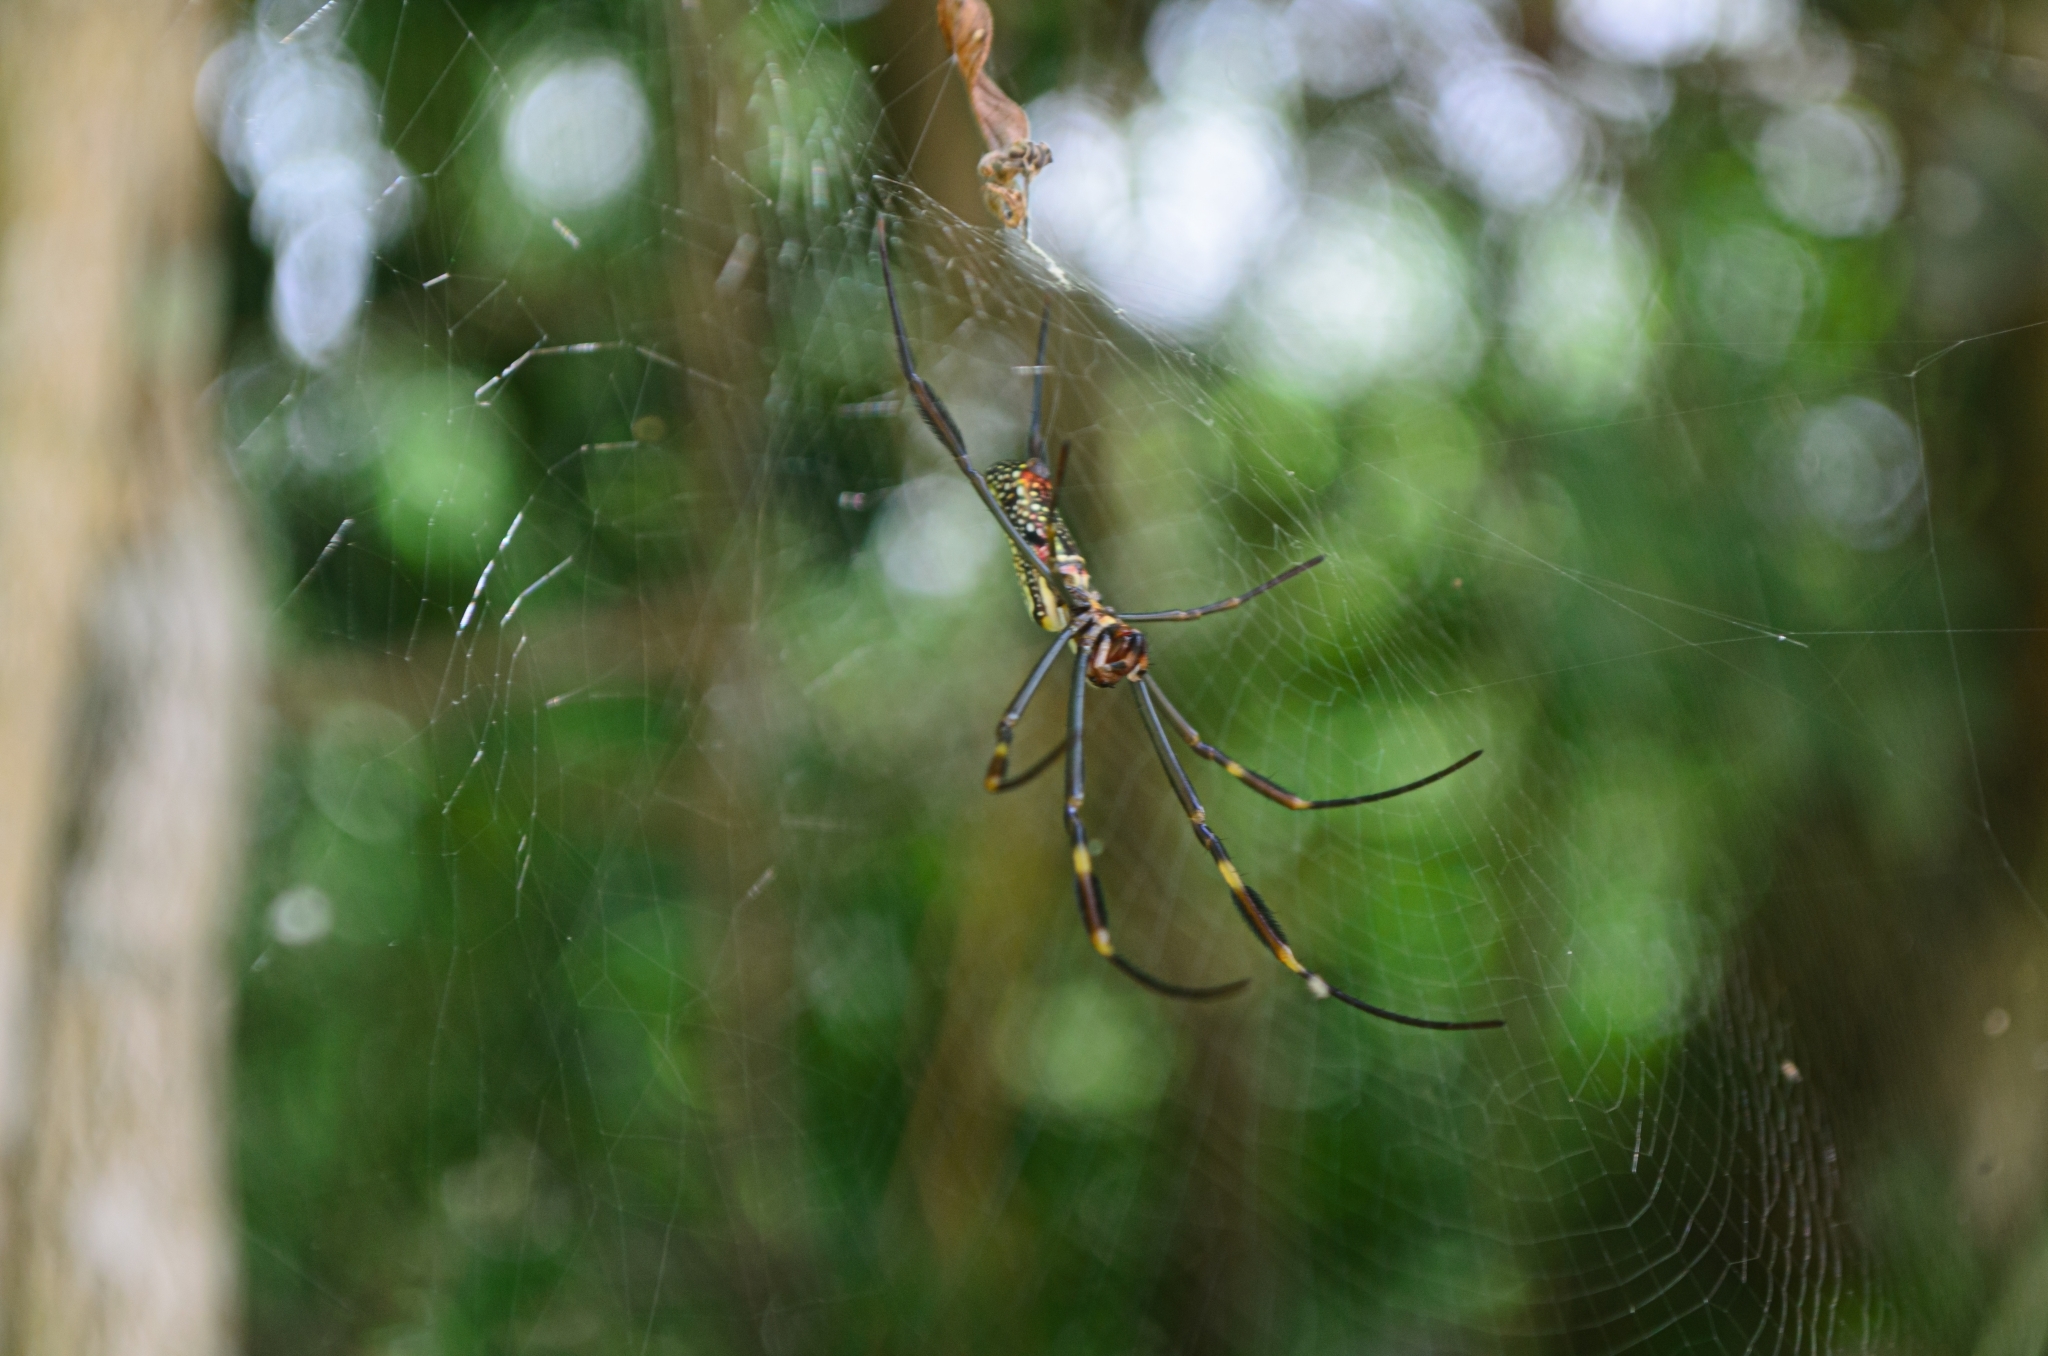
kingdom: Animalia
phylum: Arthropoda
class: Arachnida
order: Araneae
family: Araneidae
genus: Trichonephila
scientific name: Trichonephila clavipes
